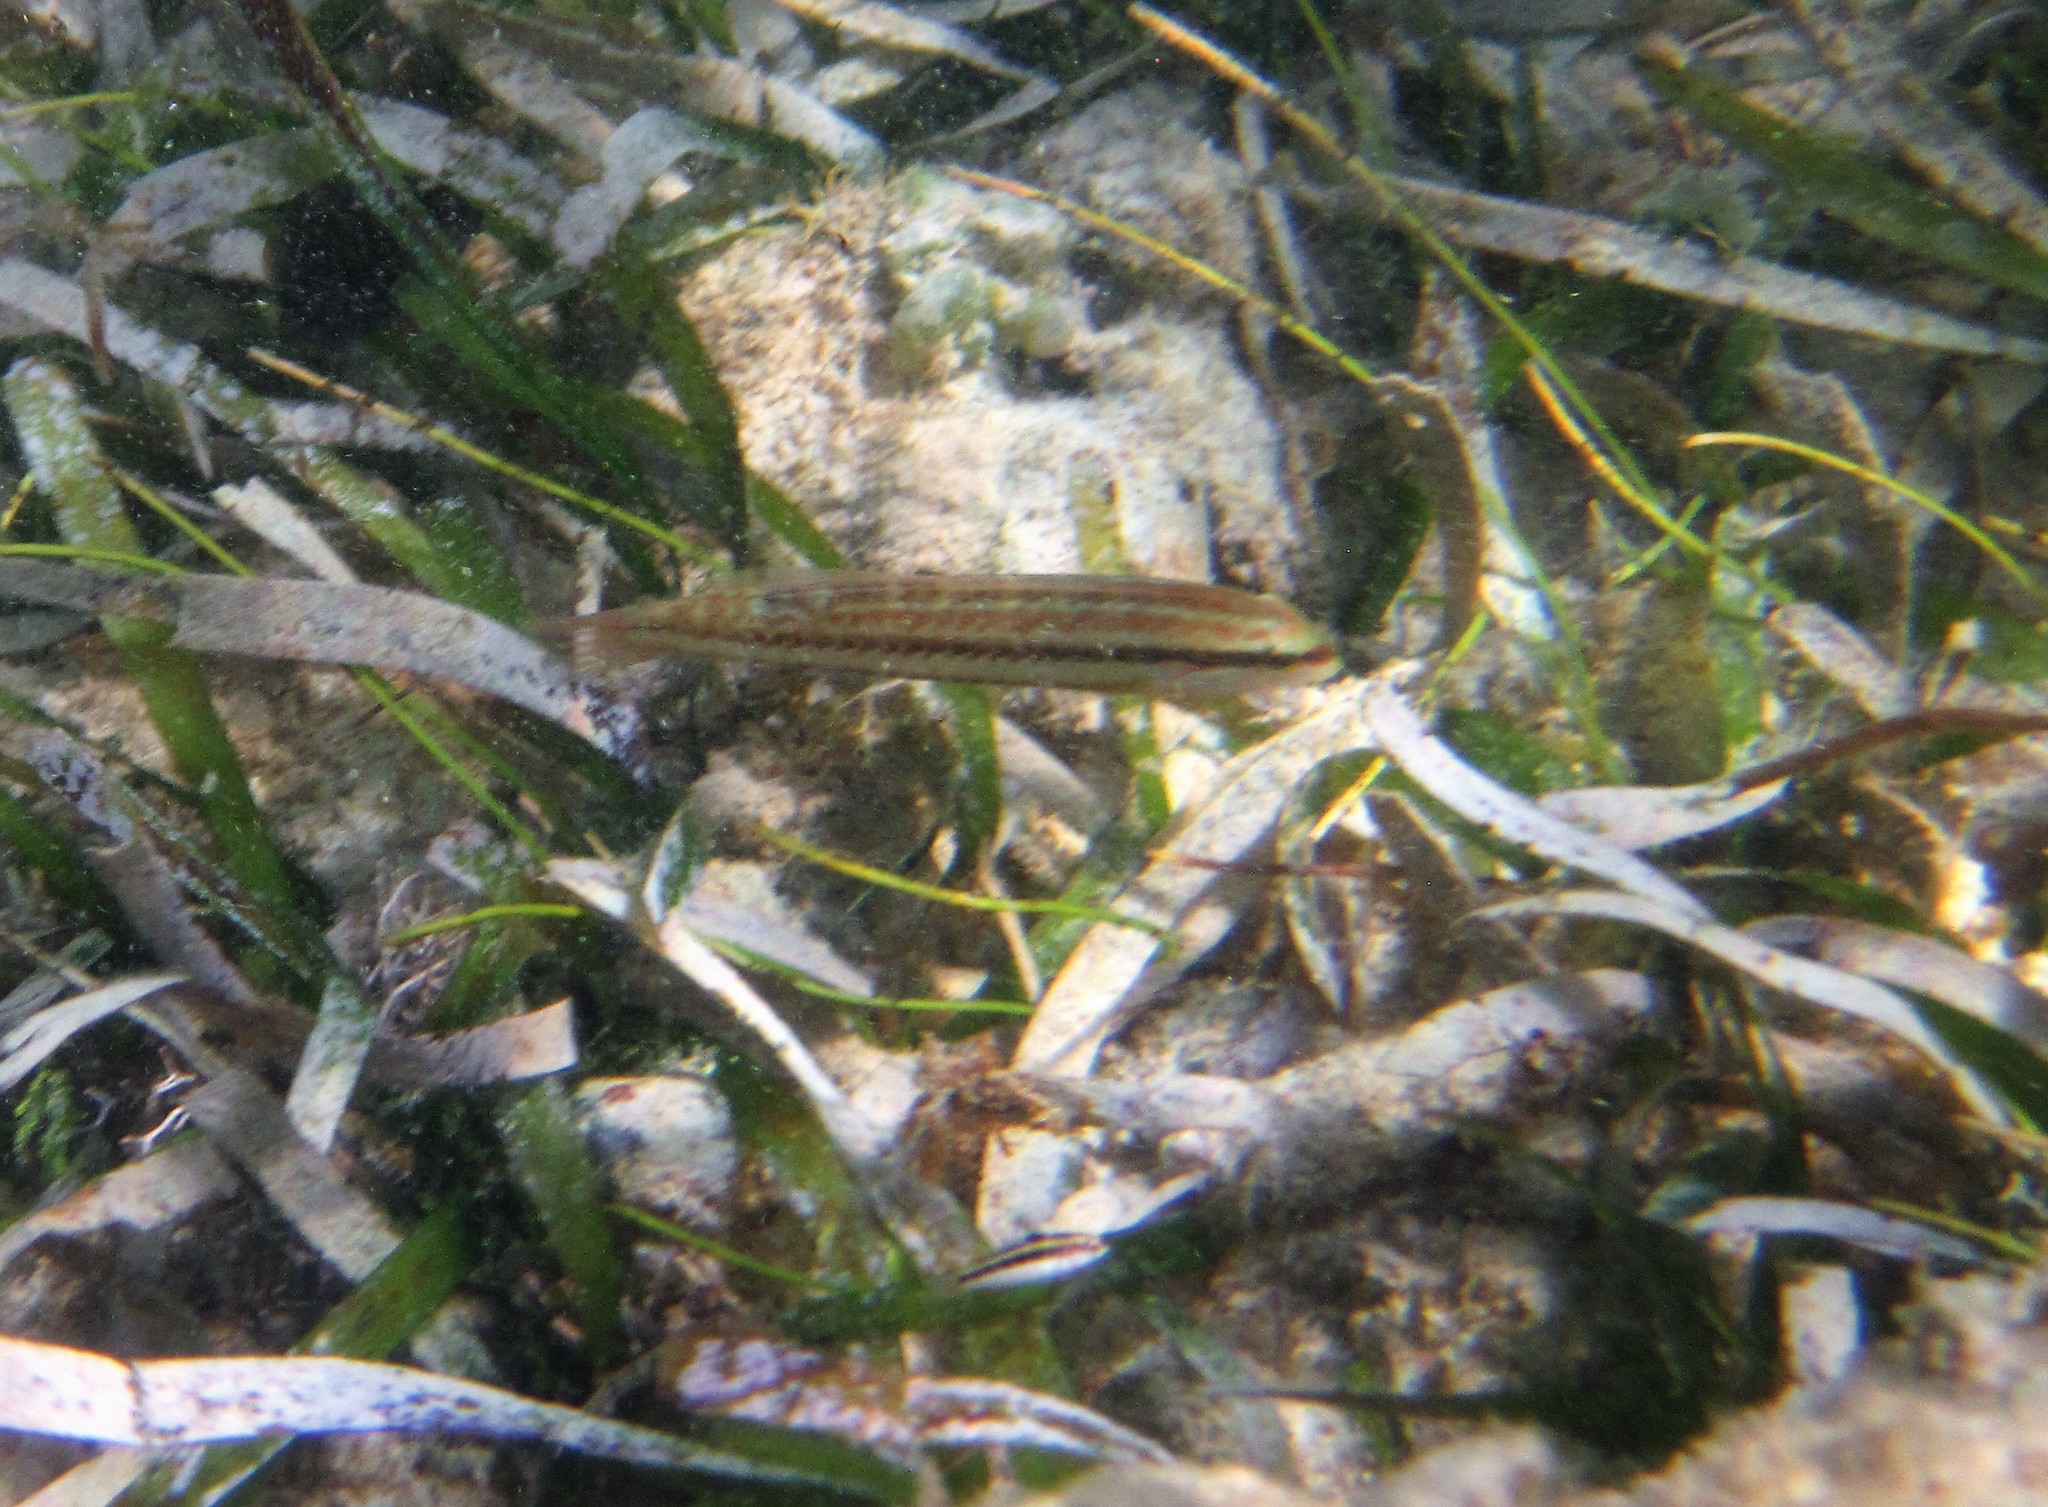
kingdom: Animalia
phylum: Chordata
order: Perciformes
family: Labridae
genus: Halichoeres
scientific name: Halichoeres bivittatus
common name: Slippery dick
